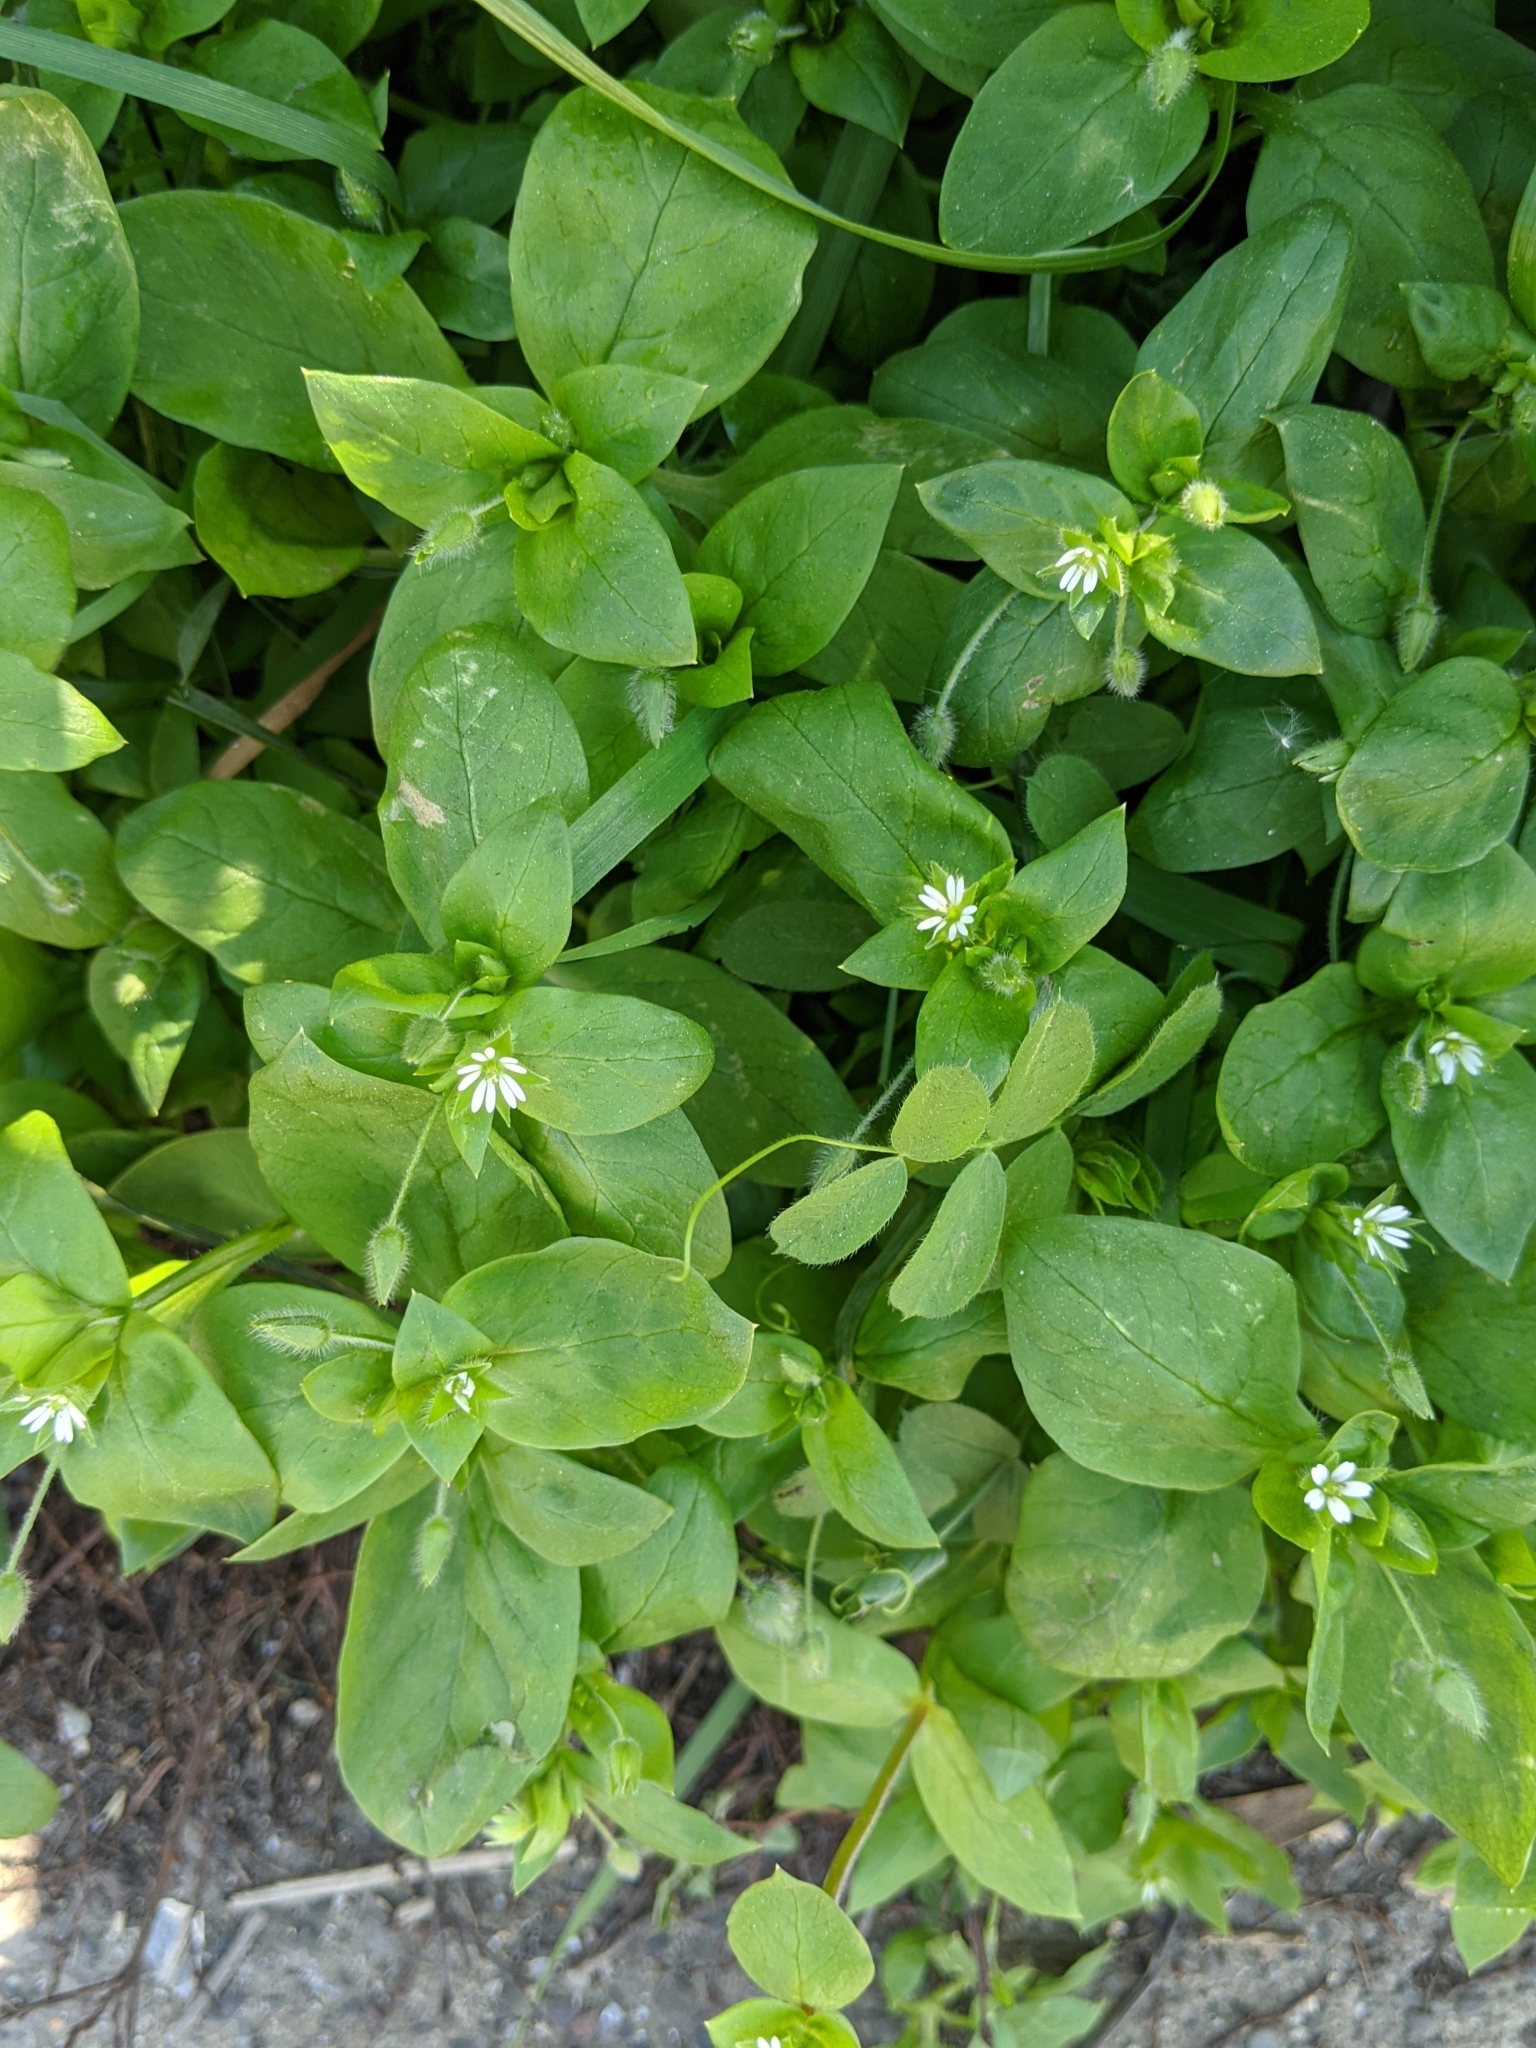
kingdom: Plantae
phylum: Tracheophyta
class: Magnoliopsida
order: Caryophyllales
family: Caryophyllaceae
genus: Stellaria
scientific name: Stellaria media
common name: Common chickweed
